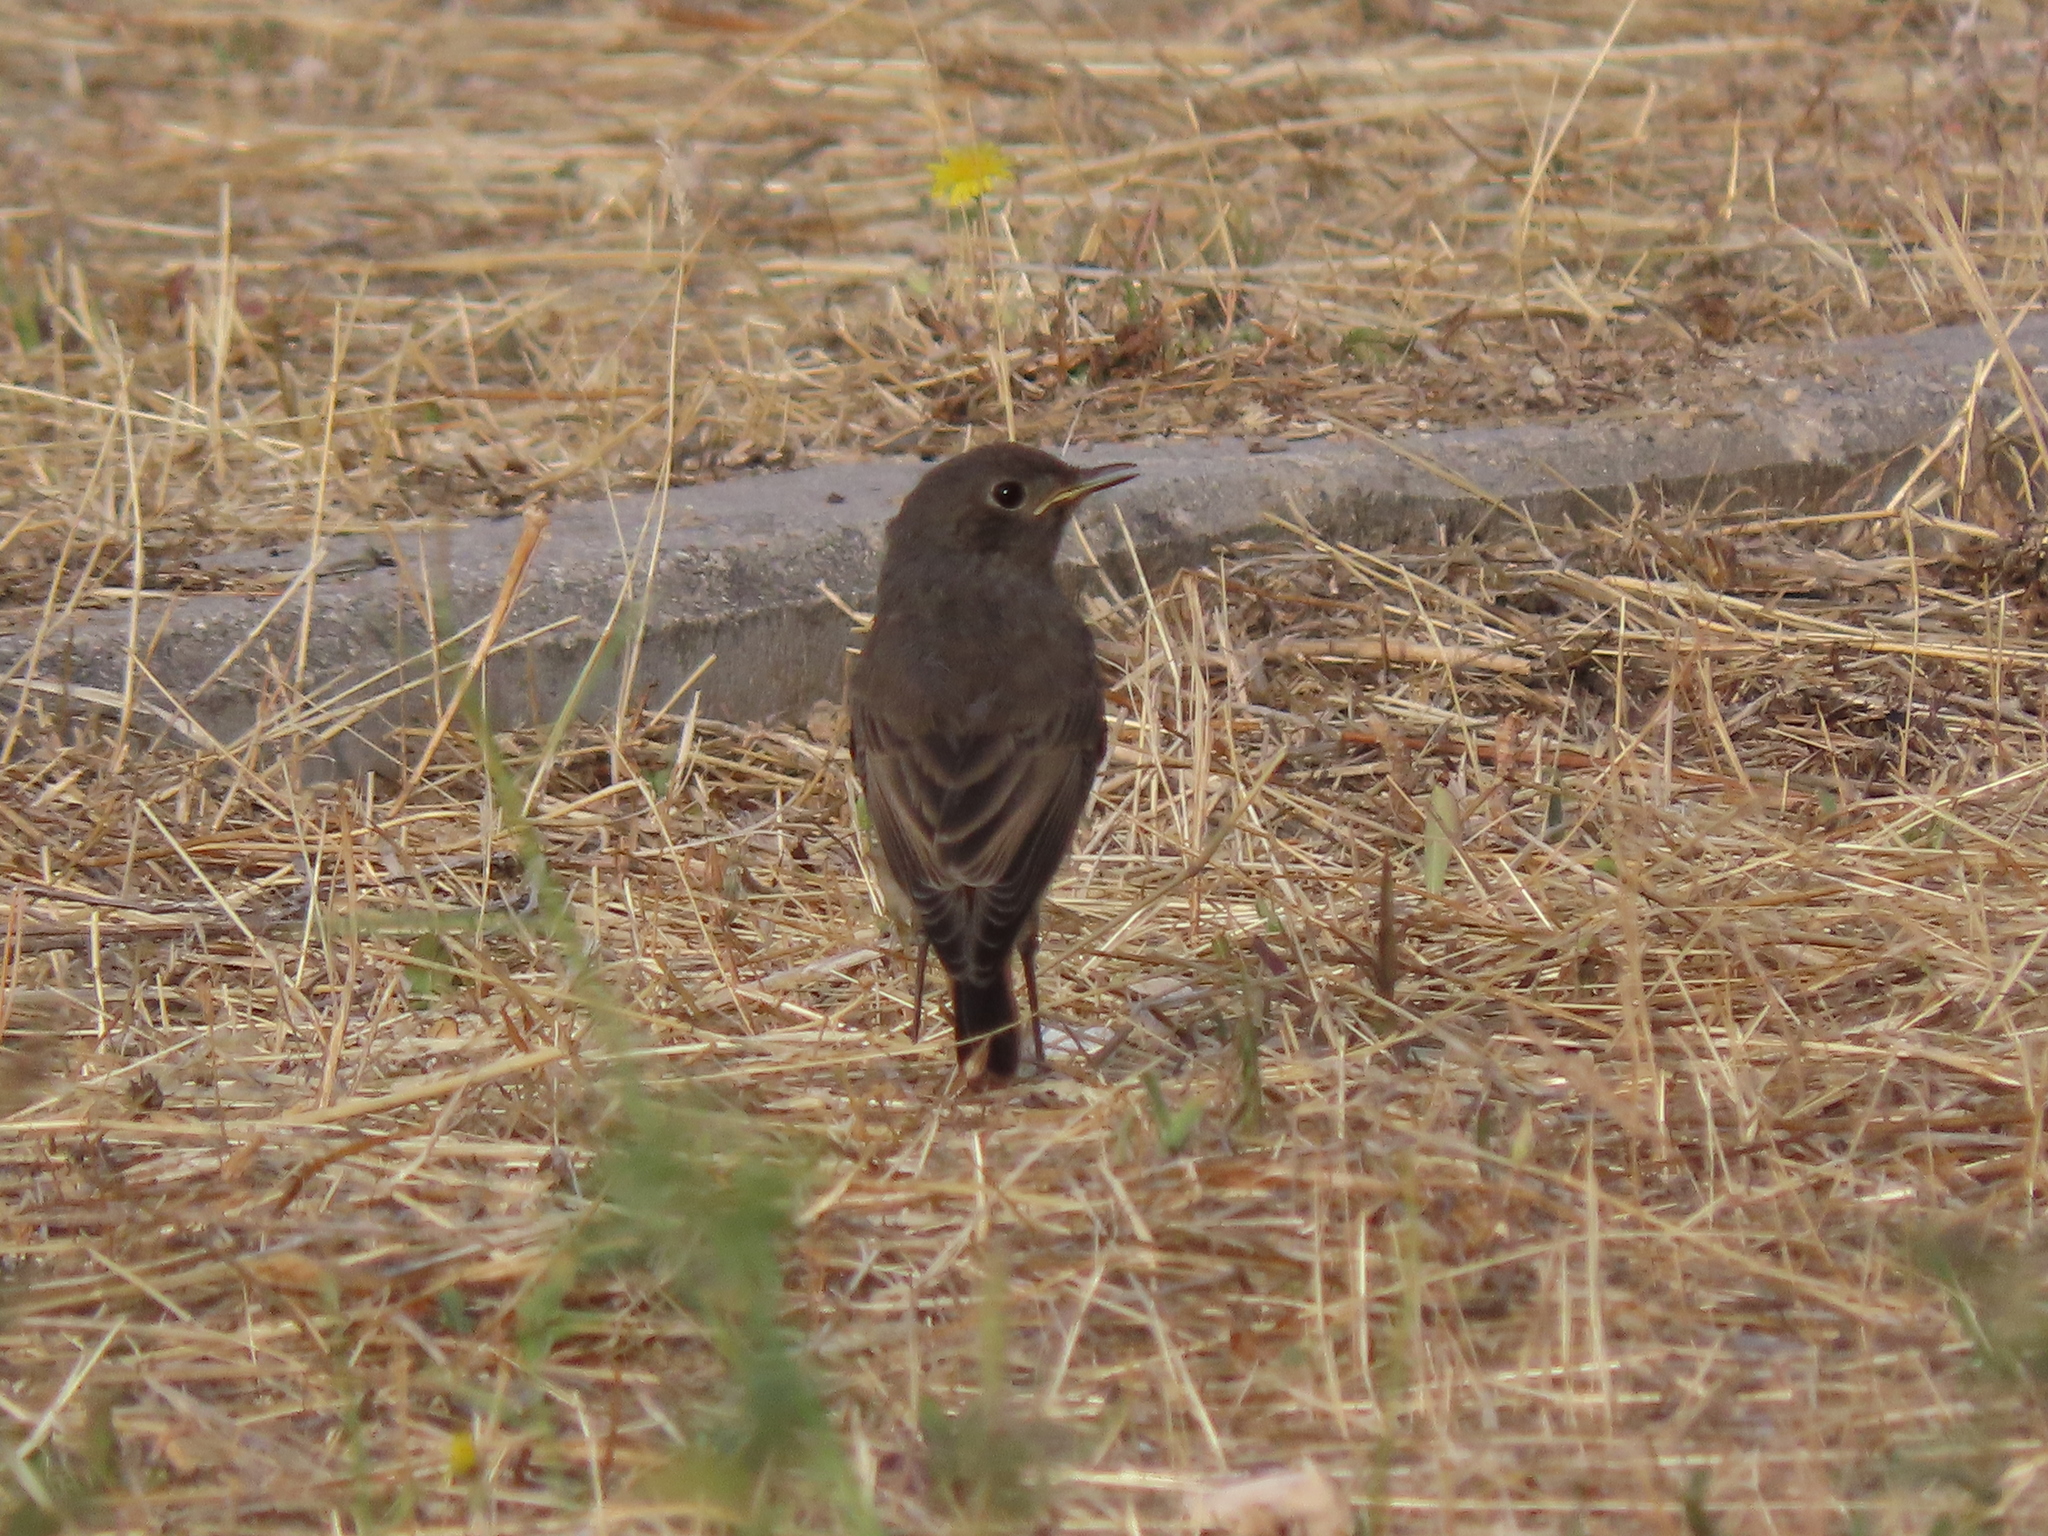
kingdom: Animalia
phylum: Chordata
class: Aves
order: Passeriformes
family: Muscicapidae
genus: Phoenicurus
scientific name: Phoenicurus ochruros
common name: Black redstart
